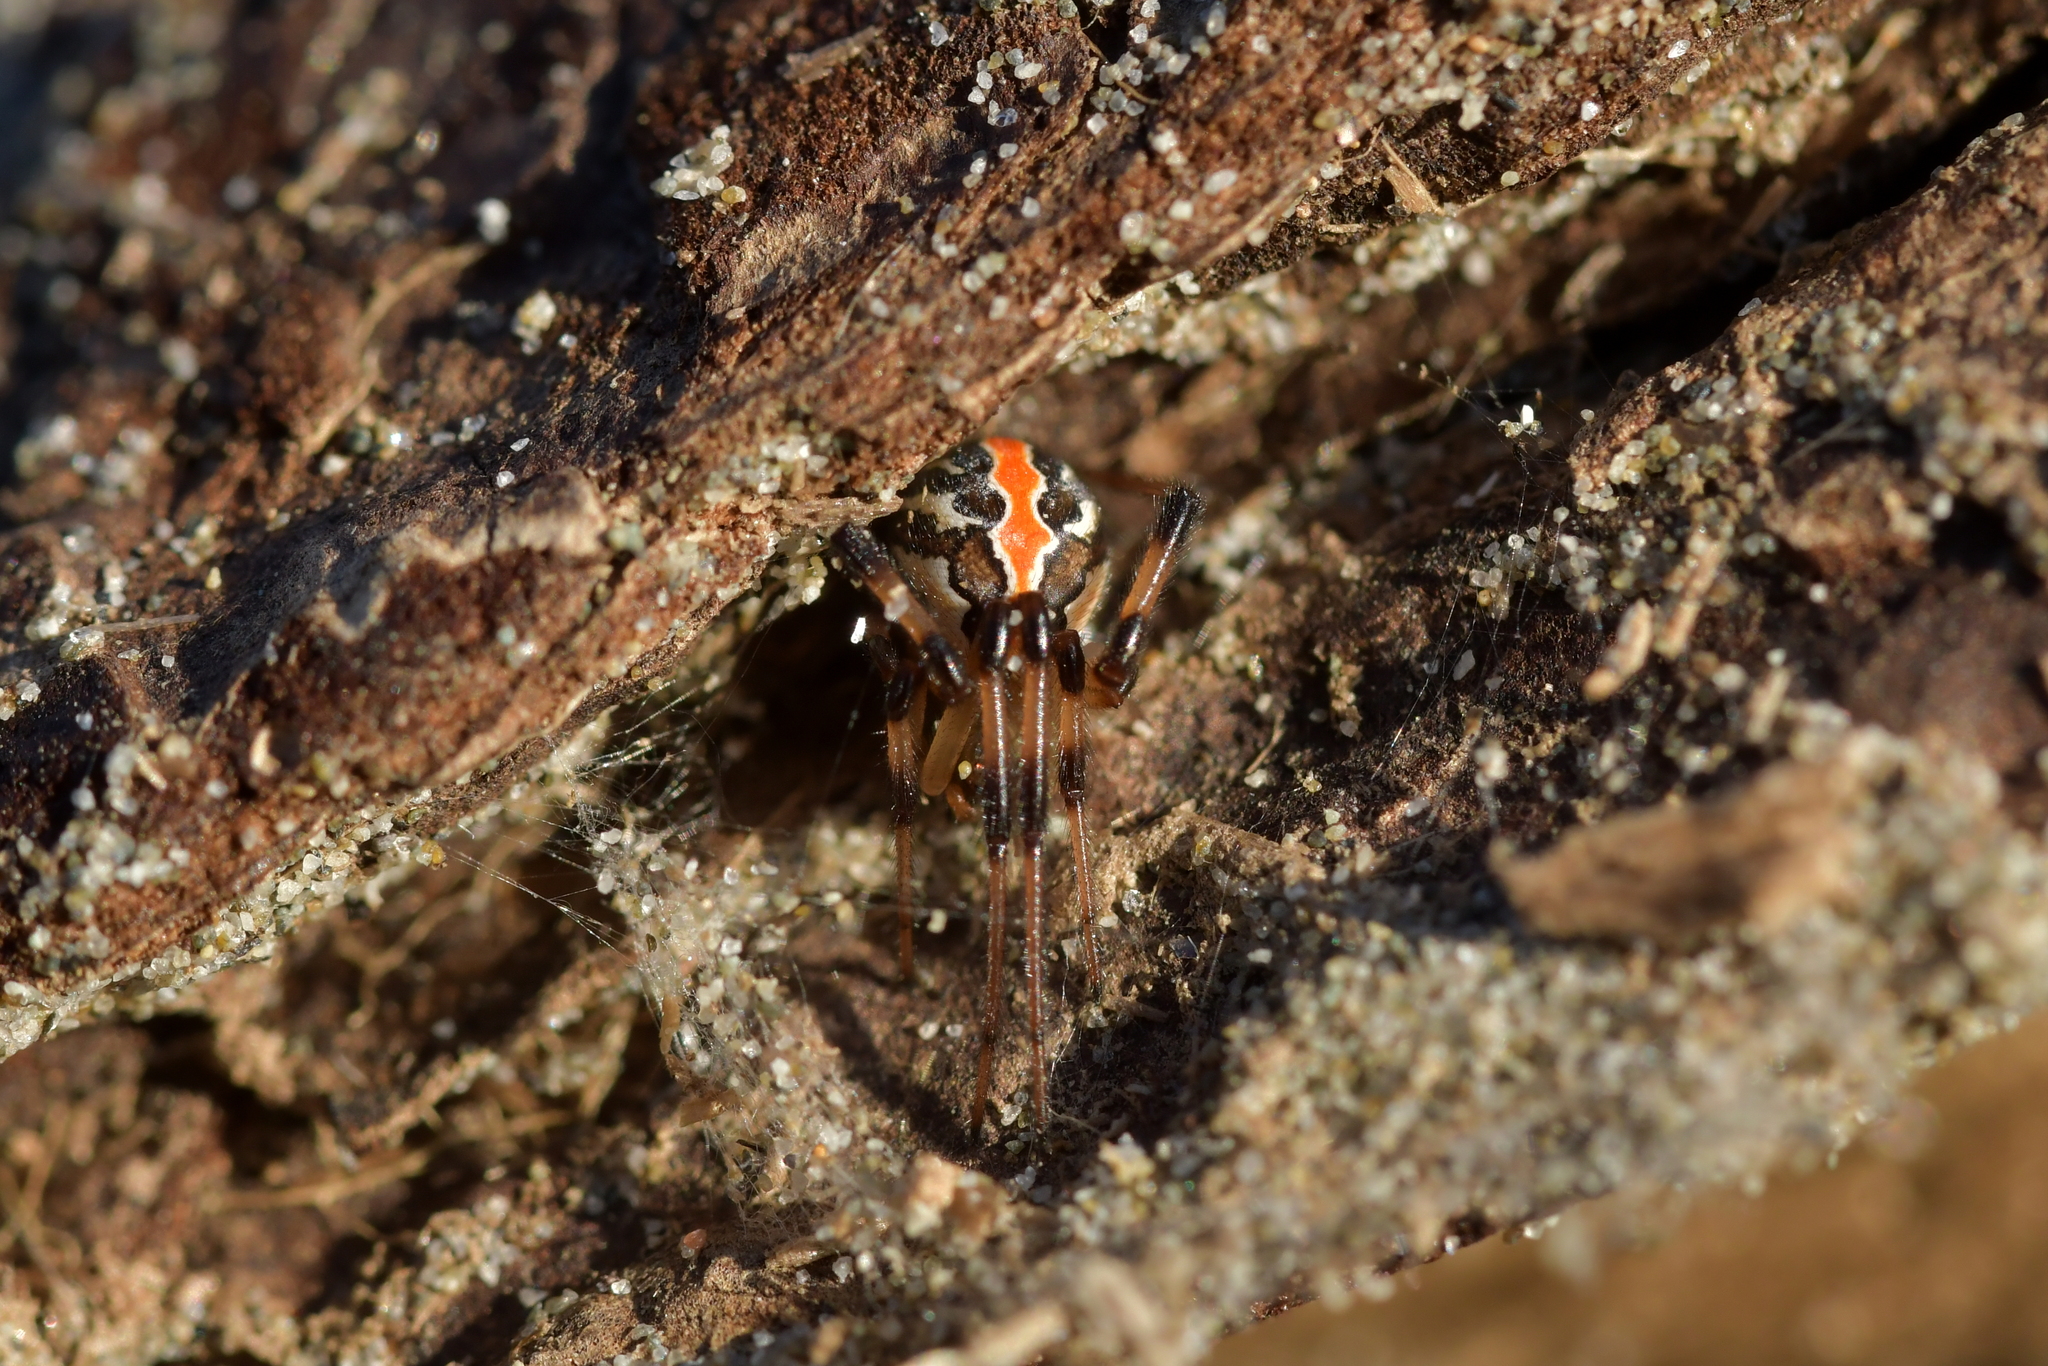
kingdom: Animalia
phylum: Arthropoda
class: Arachnida
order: Araneae
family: Theridiidae
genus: Latrodectus
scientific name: Latrodectus katipo
